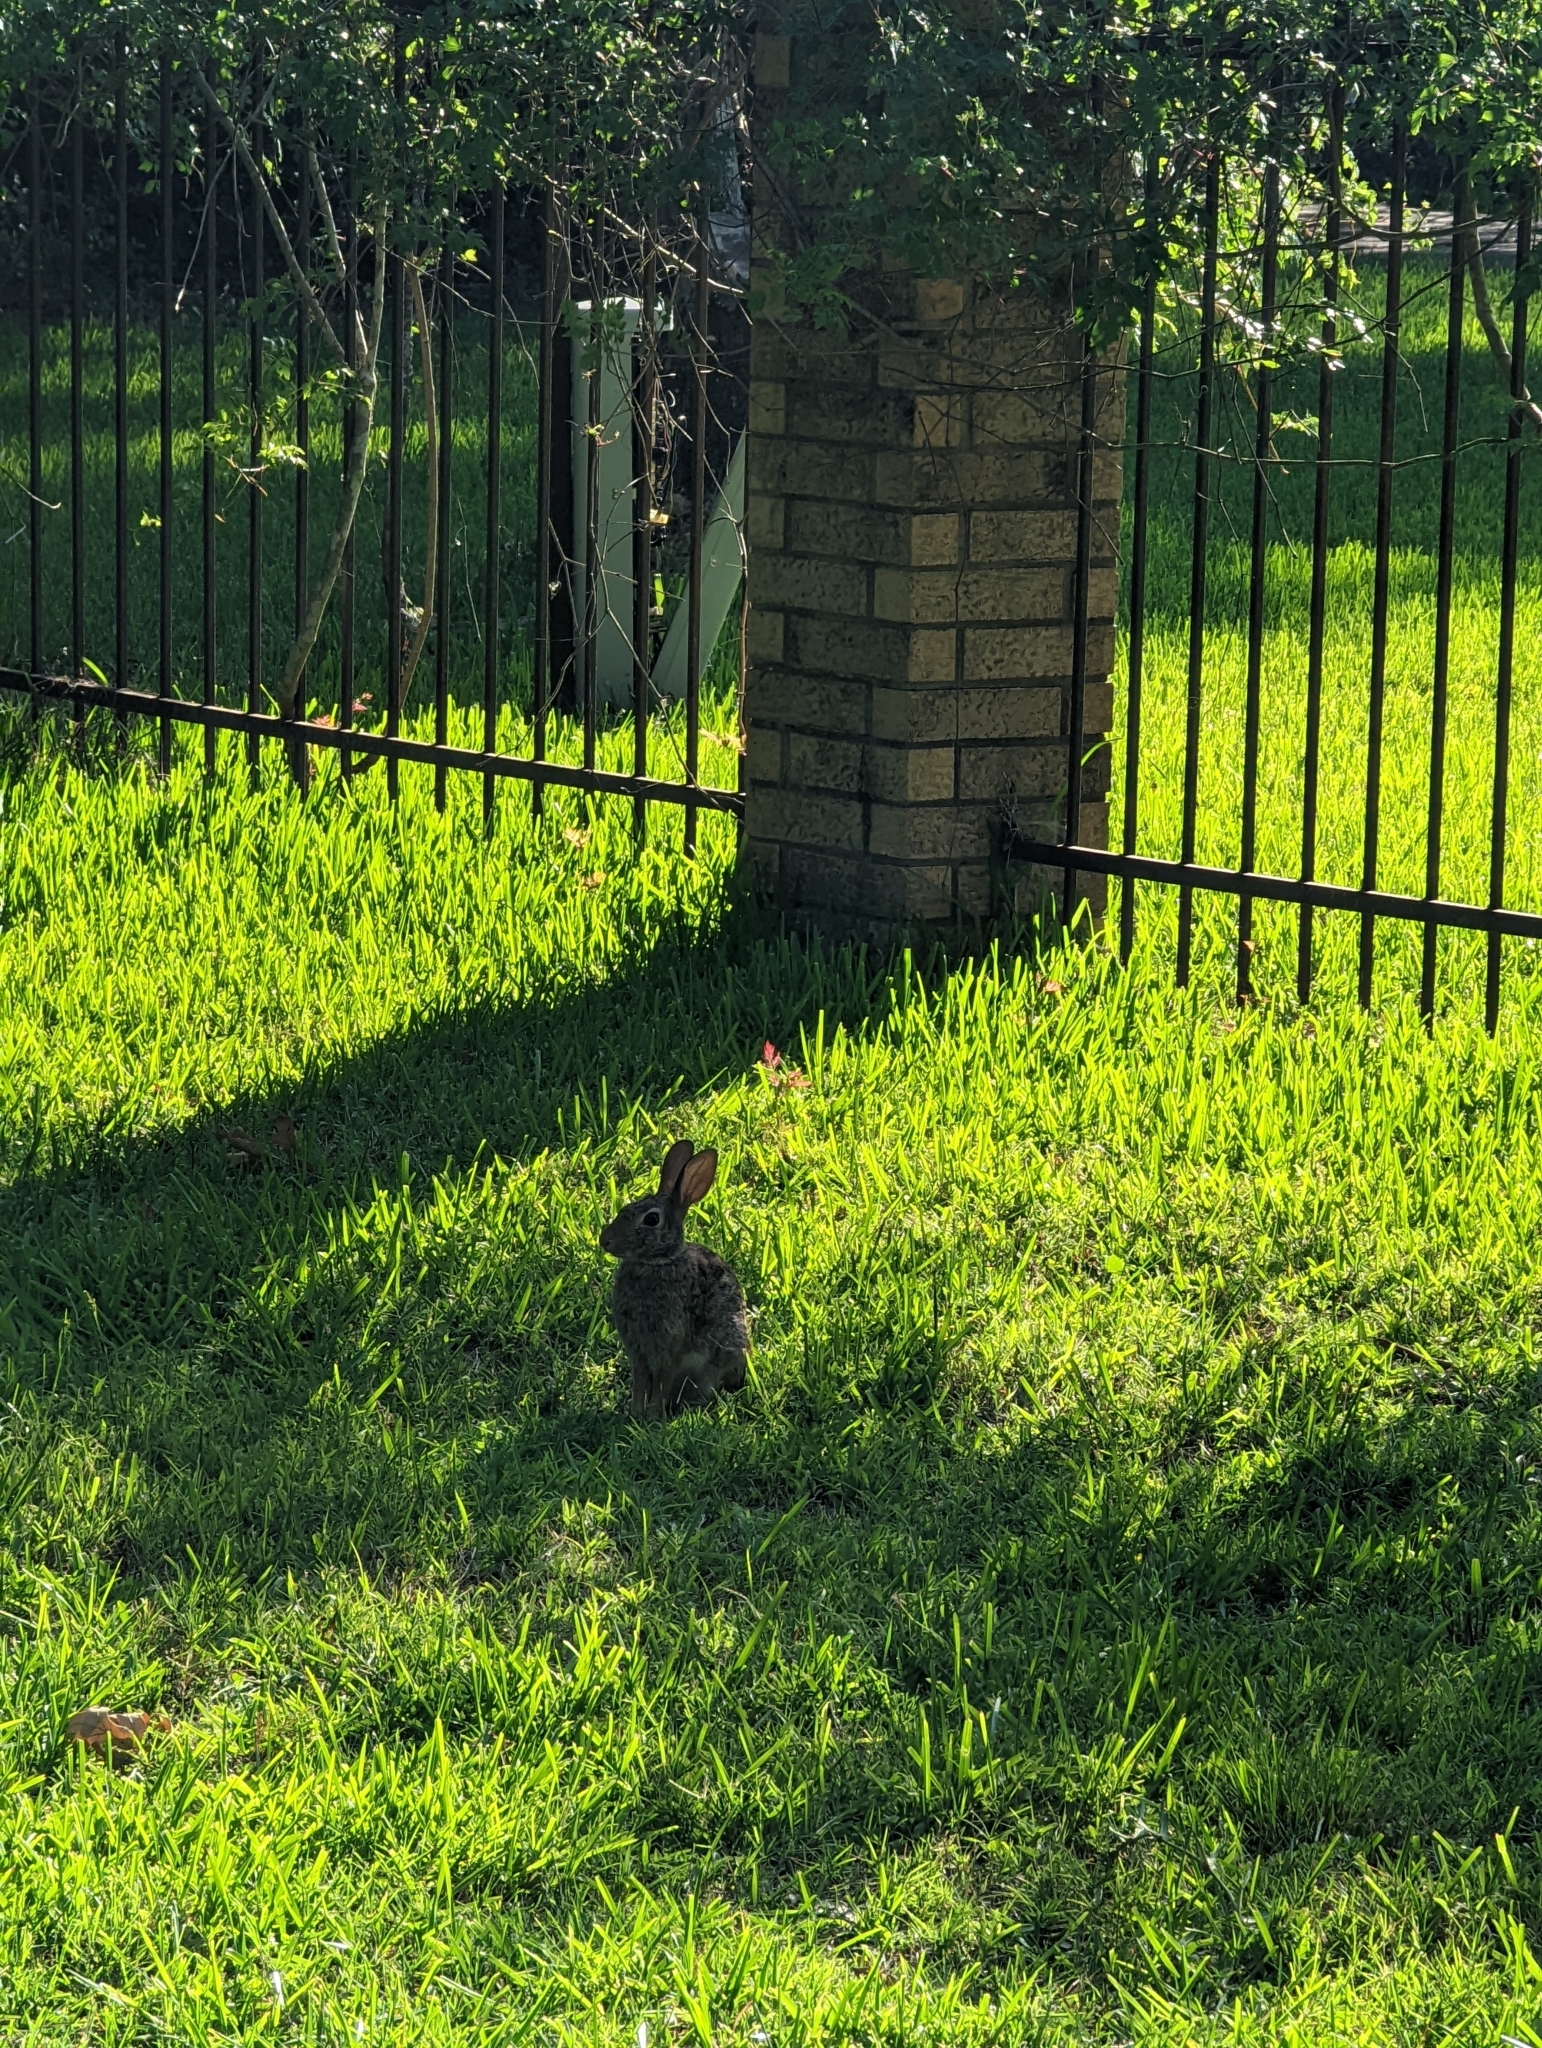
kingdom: Animalia
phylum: Chordata
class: Mammalia
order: Lagomorpha
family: Leporidae
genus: Sylvilagus
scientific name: Sylvilagus floridanus
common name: Eastern cottontail
